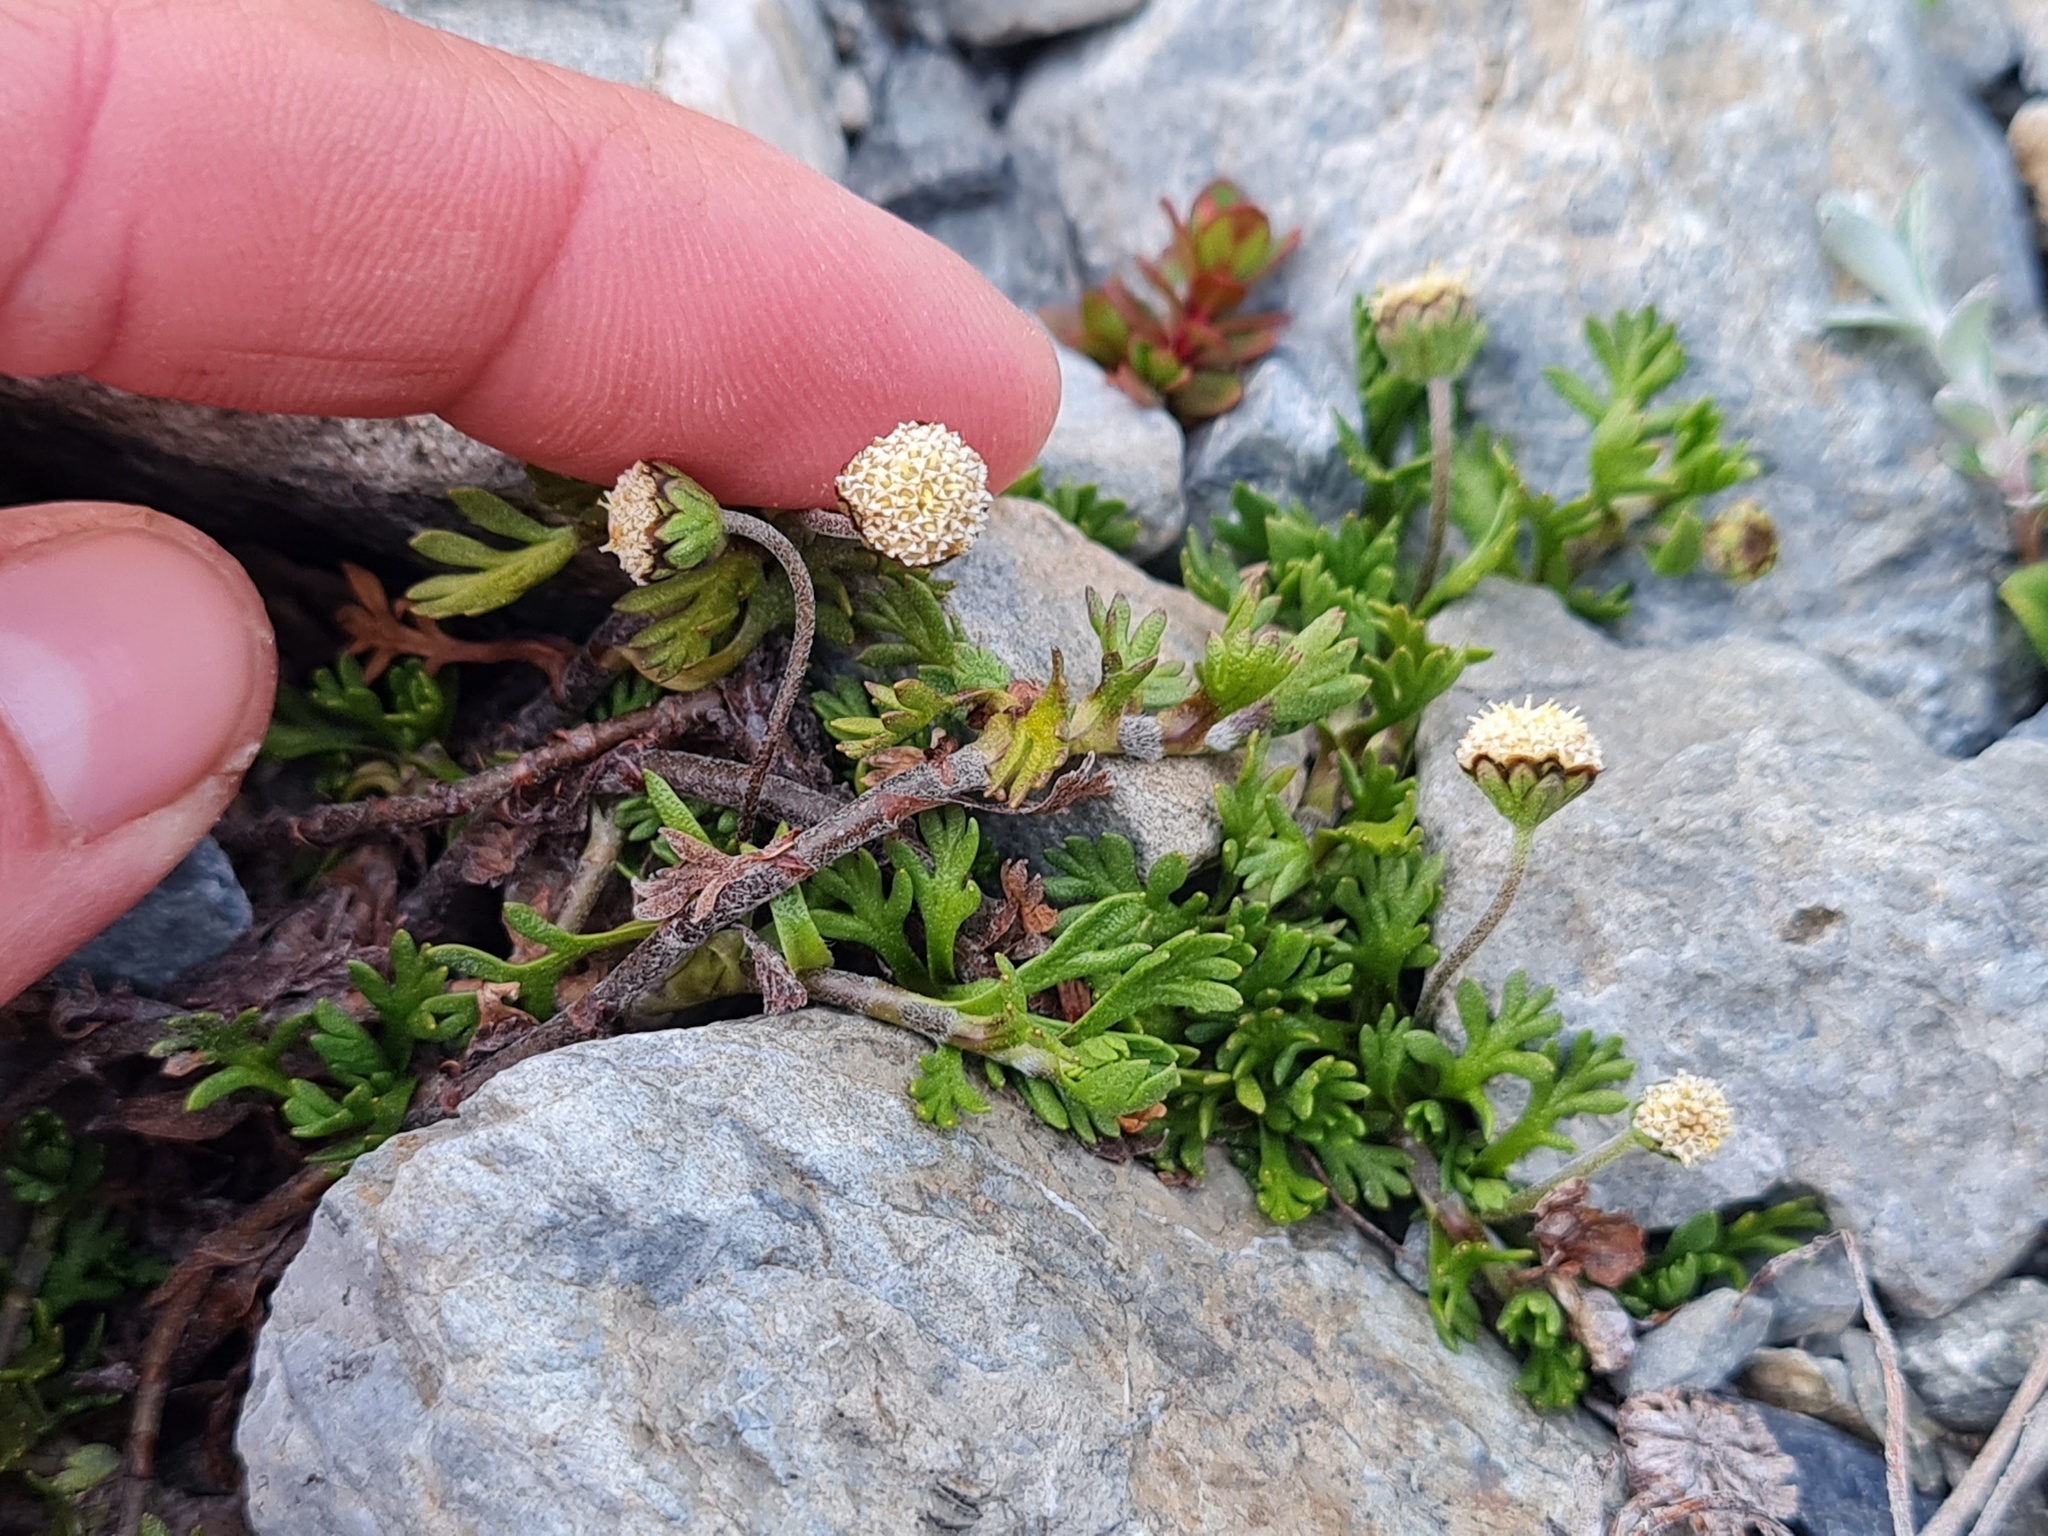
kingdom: Plantae
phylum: Tracheophyta
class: Magnoliopsida
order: Asterales
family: Asteraceae
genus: Leptinella
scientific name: Leptinella pectinata
